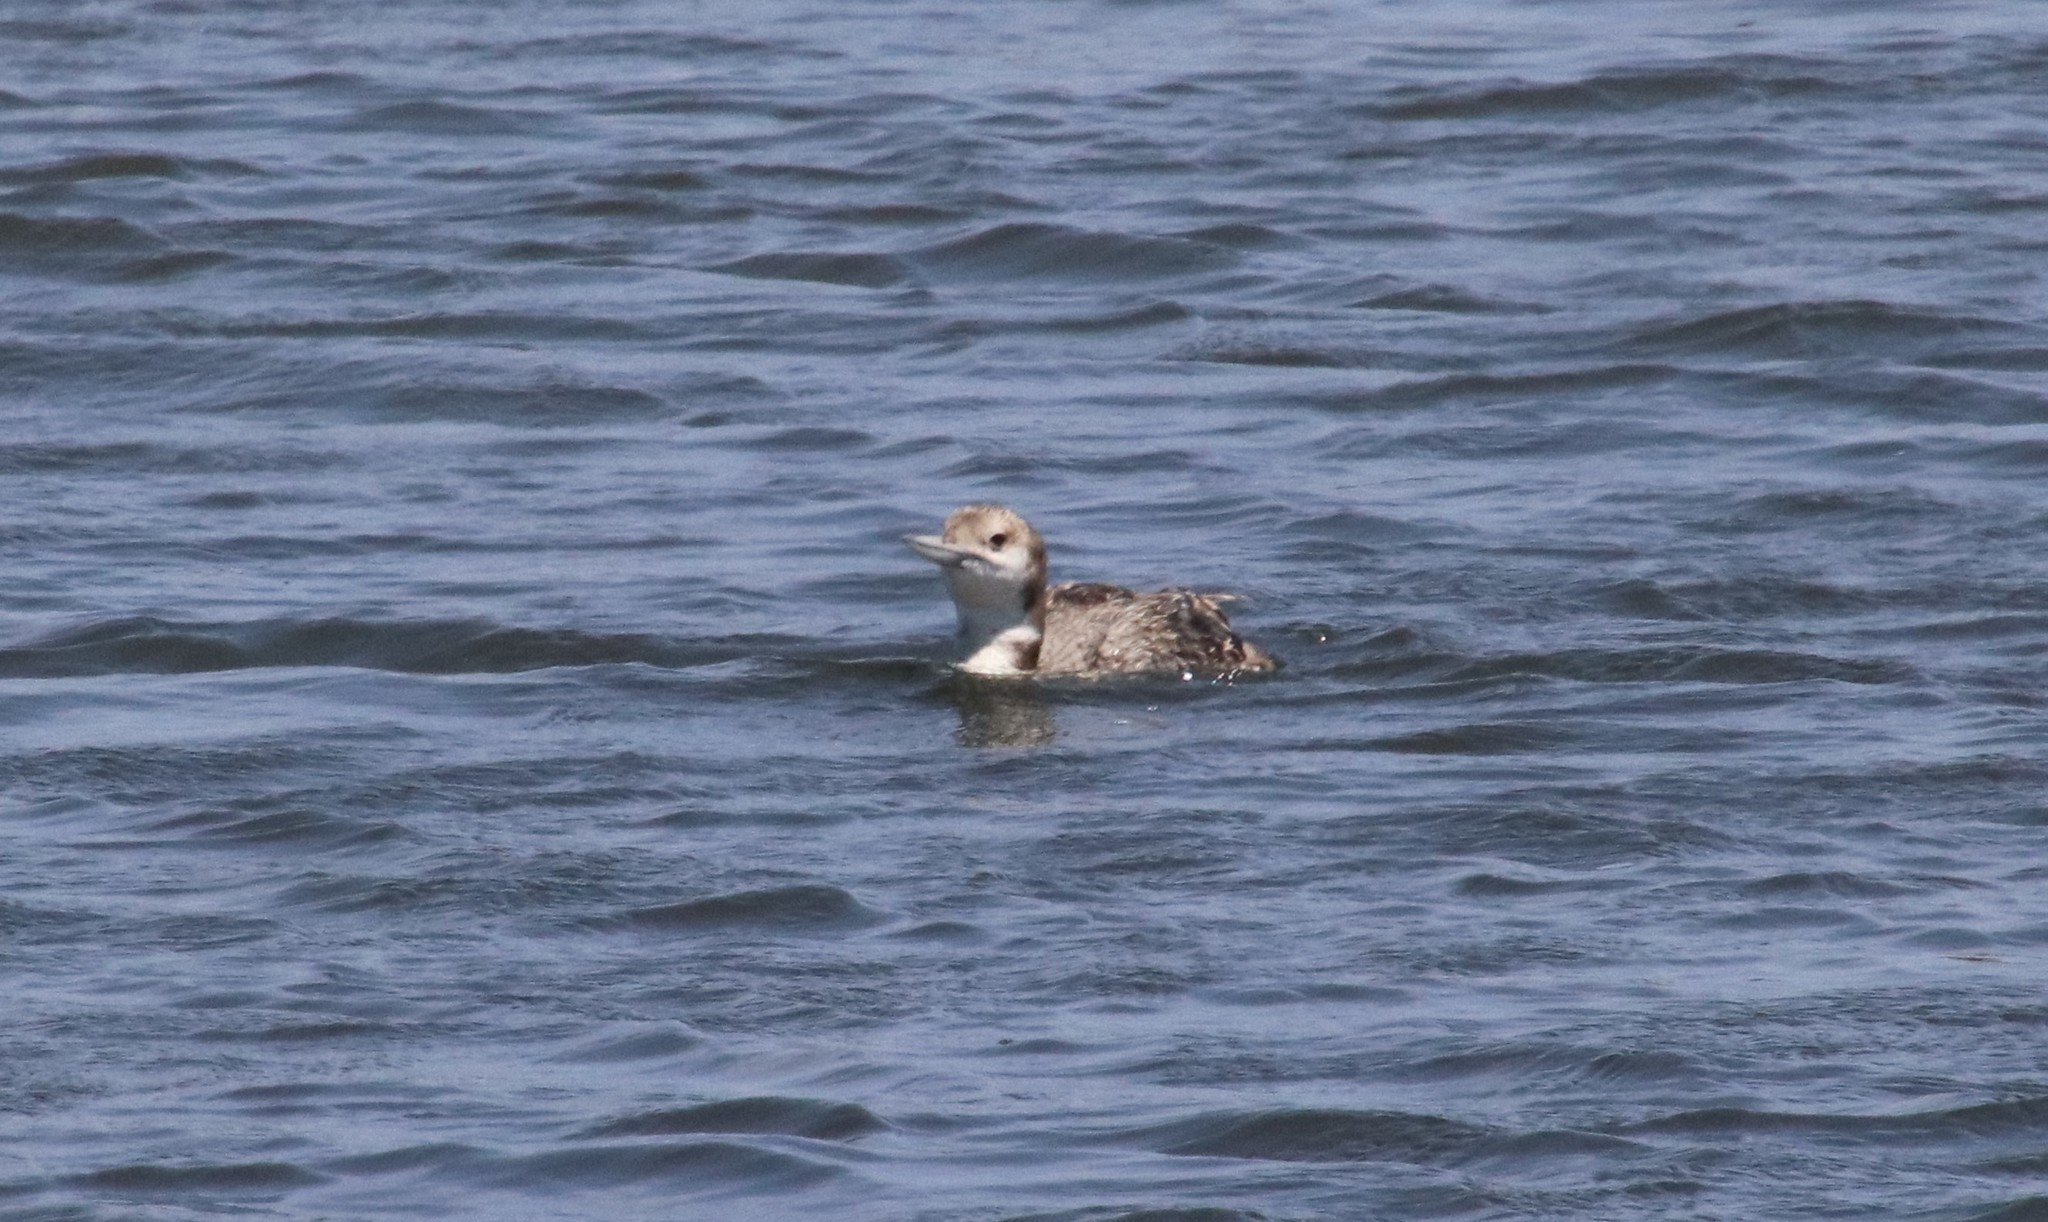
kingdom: Animalia
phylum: Chordata
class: Aves
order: Gaviiformes
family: Gaviidae
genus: Gavia
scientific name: Gavia immer
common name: Common loon
